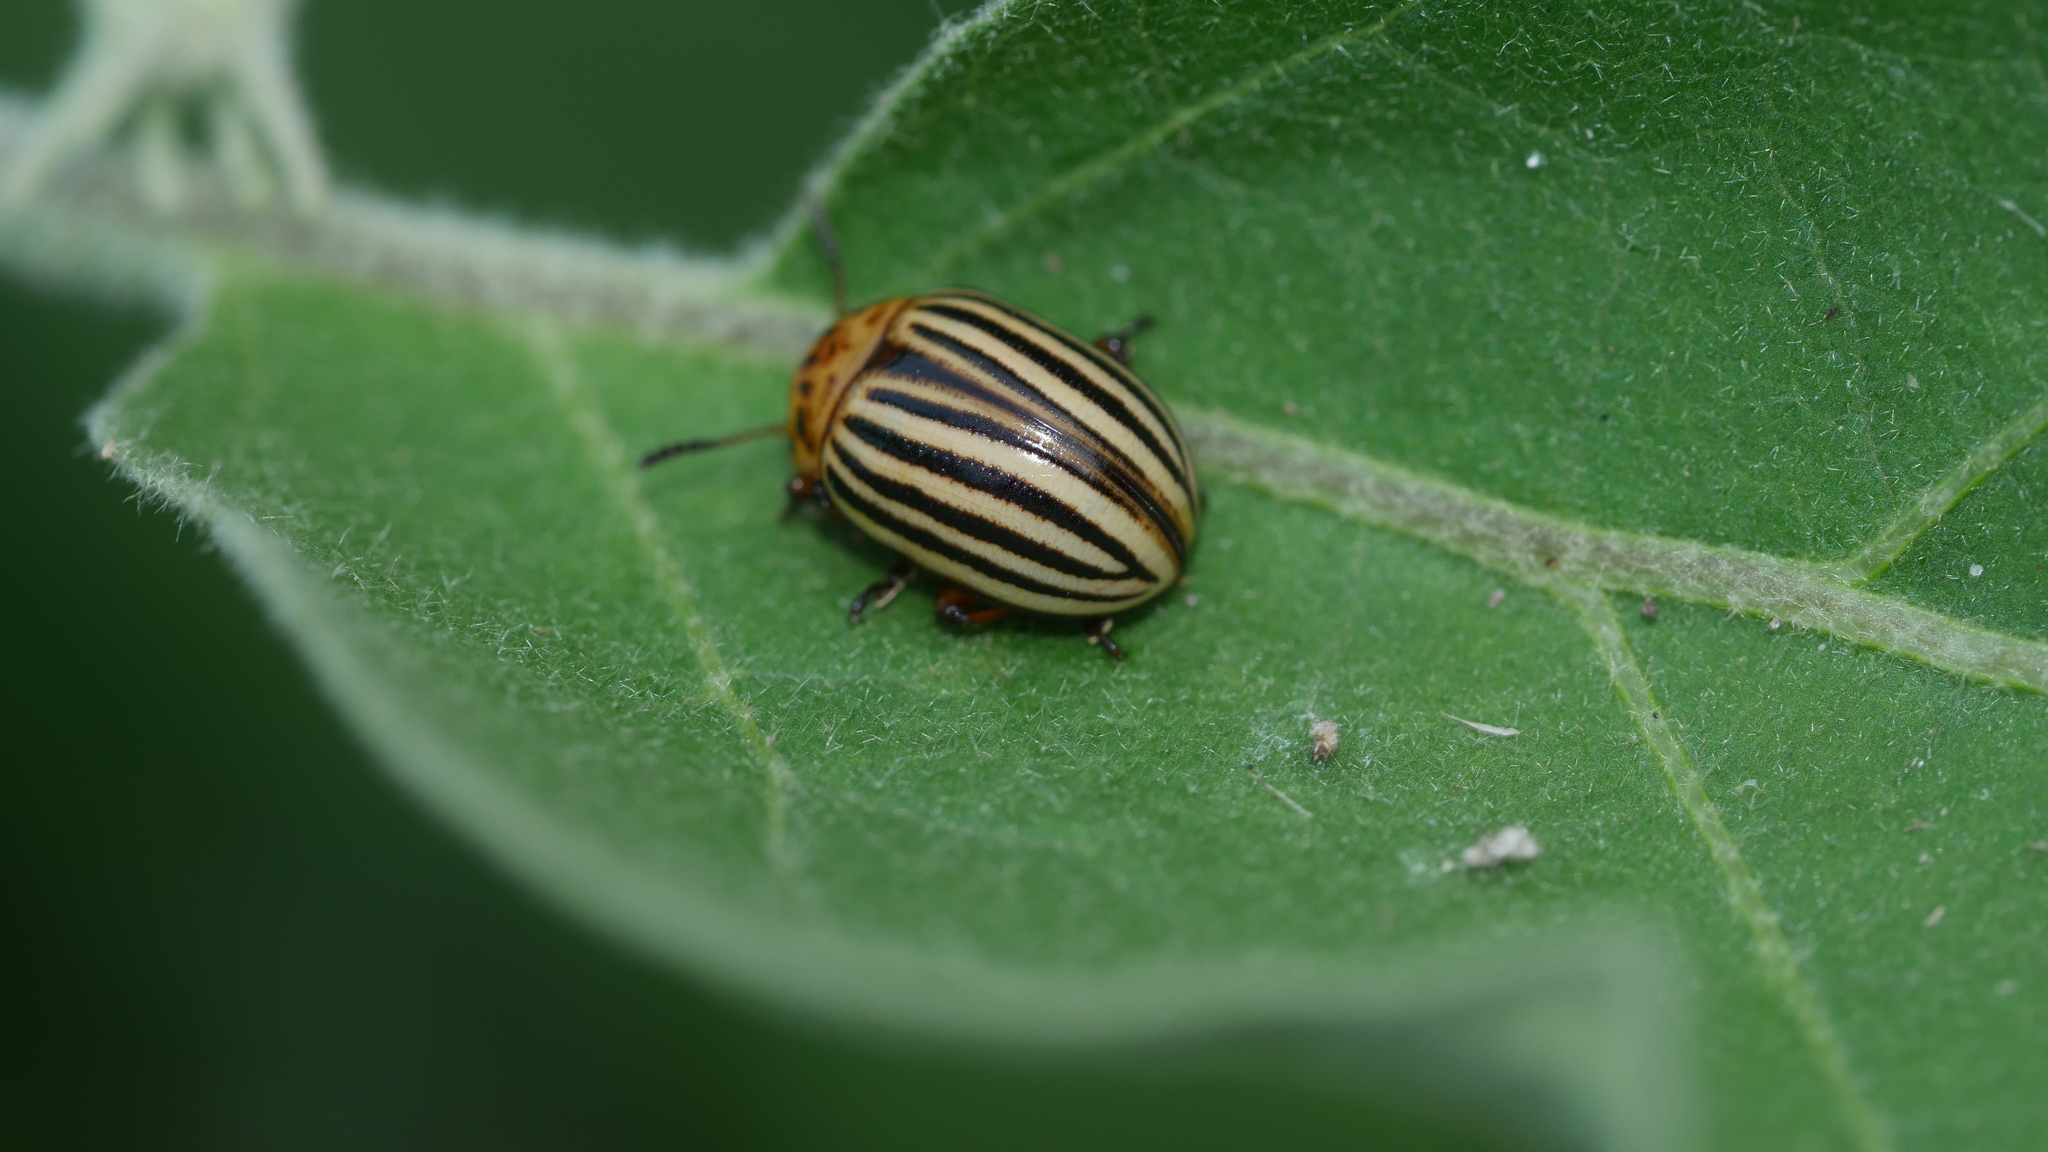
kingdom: Animalia
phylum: Arthropoda
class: Insecta
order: Coleoptera
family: Chrysomelidae
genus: Leptinotarsa
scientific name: Leptinotarsa decemlineata
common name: Colorado potato beetle
